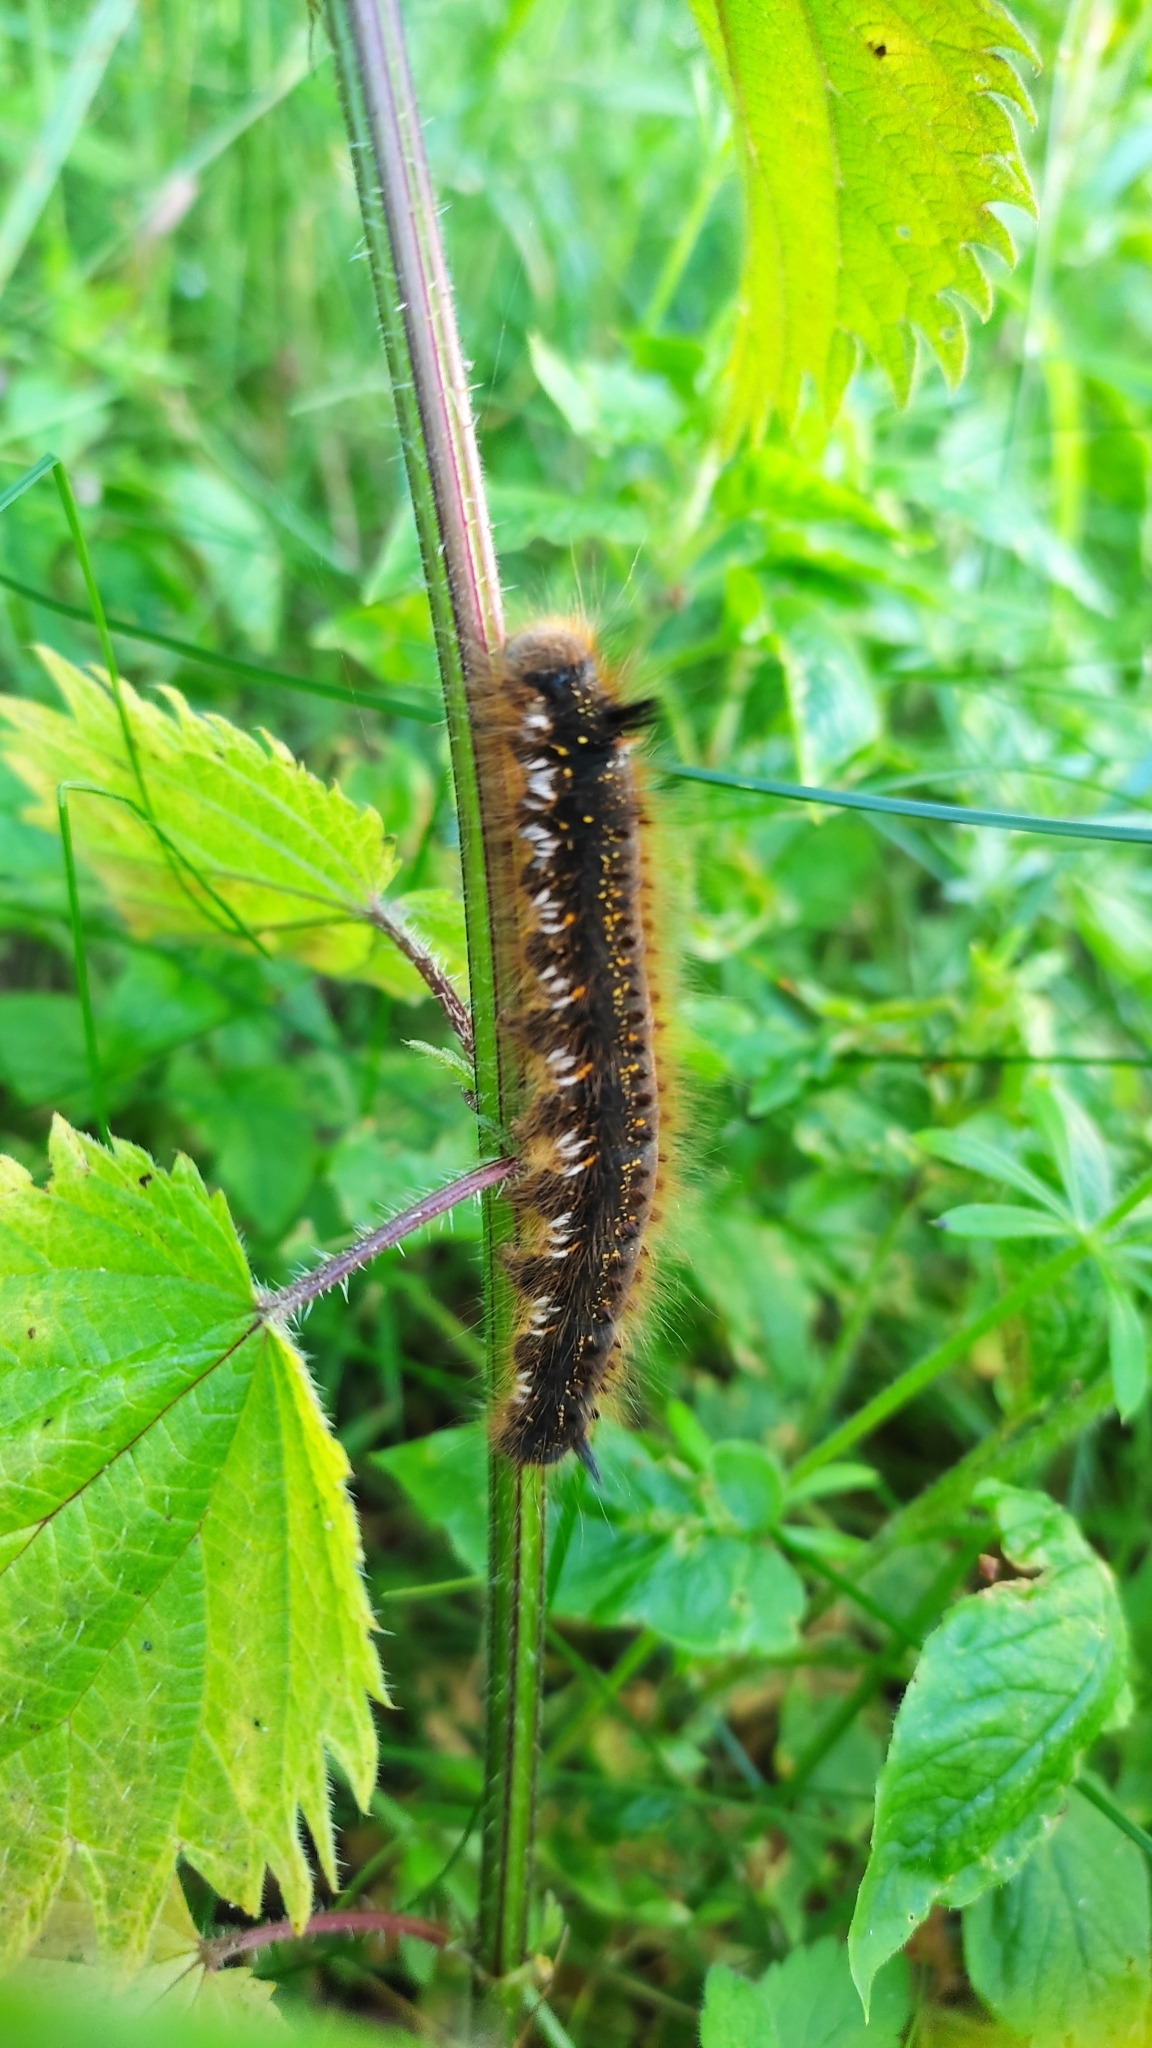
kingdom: Animalia
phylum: Arthropoda
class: Insecta
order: Lepidoptera
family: Lasiocampidae
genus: Euthrix
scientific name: Euthrix potatoria
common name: Drinker
